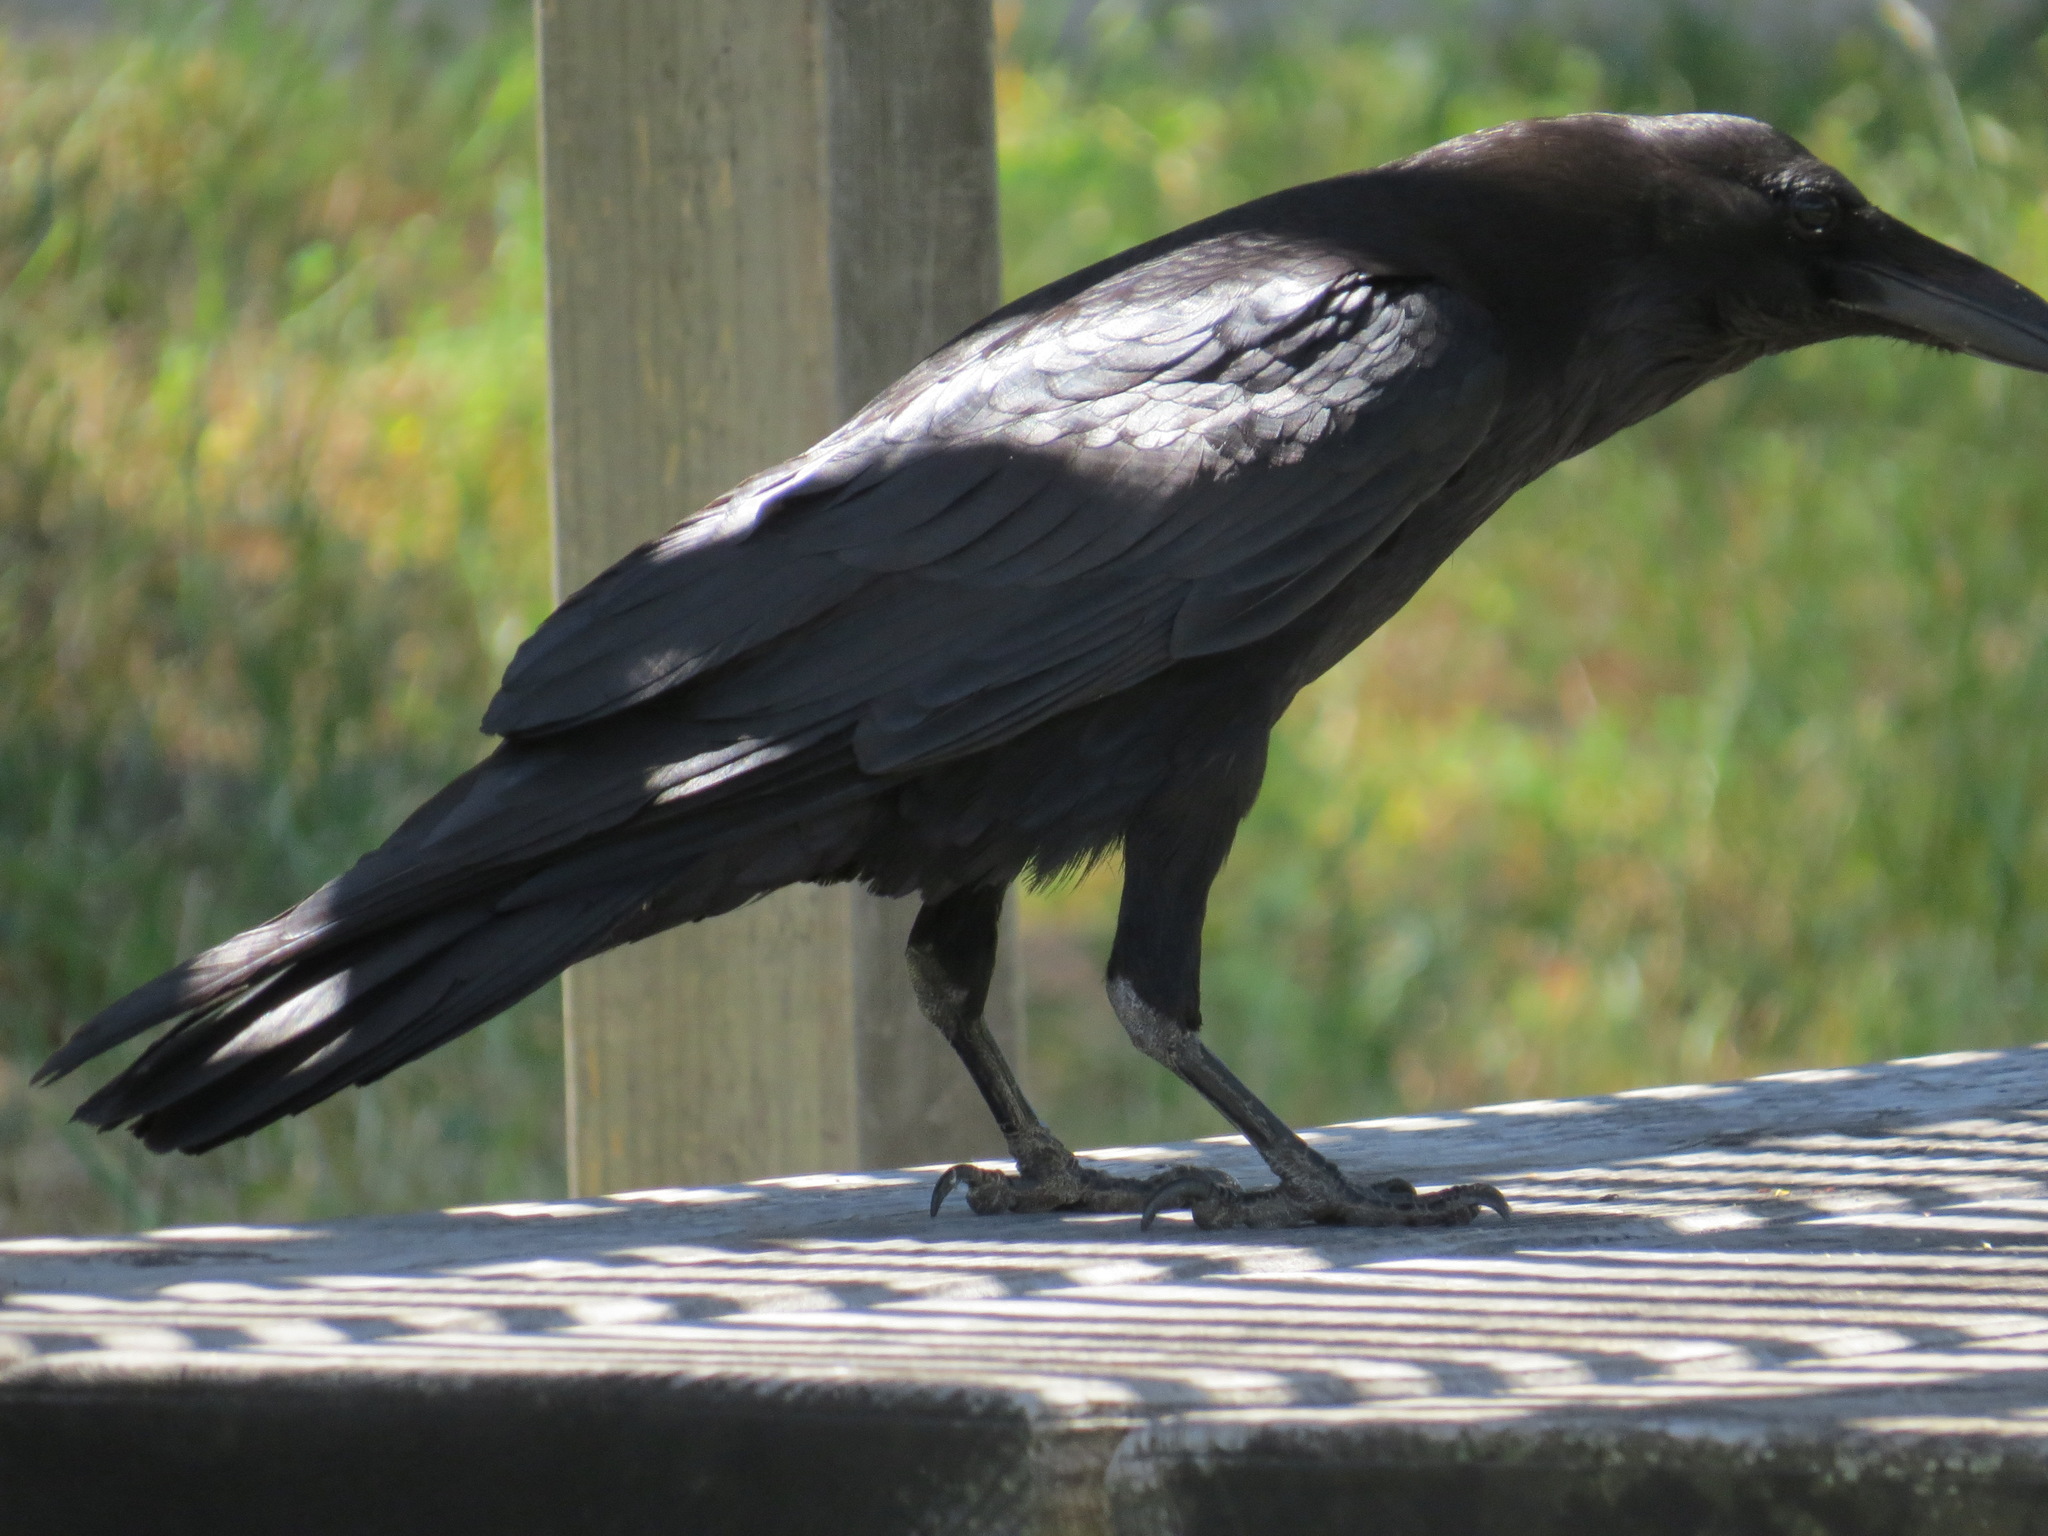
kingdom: Animalia
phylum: Chordata
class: Aves
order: Passeriformes
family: Corvidae
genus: Corvus
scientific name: Corvus corax
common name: Common raven
